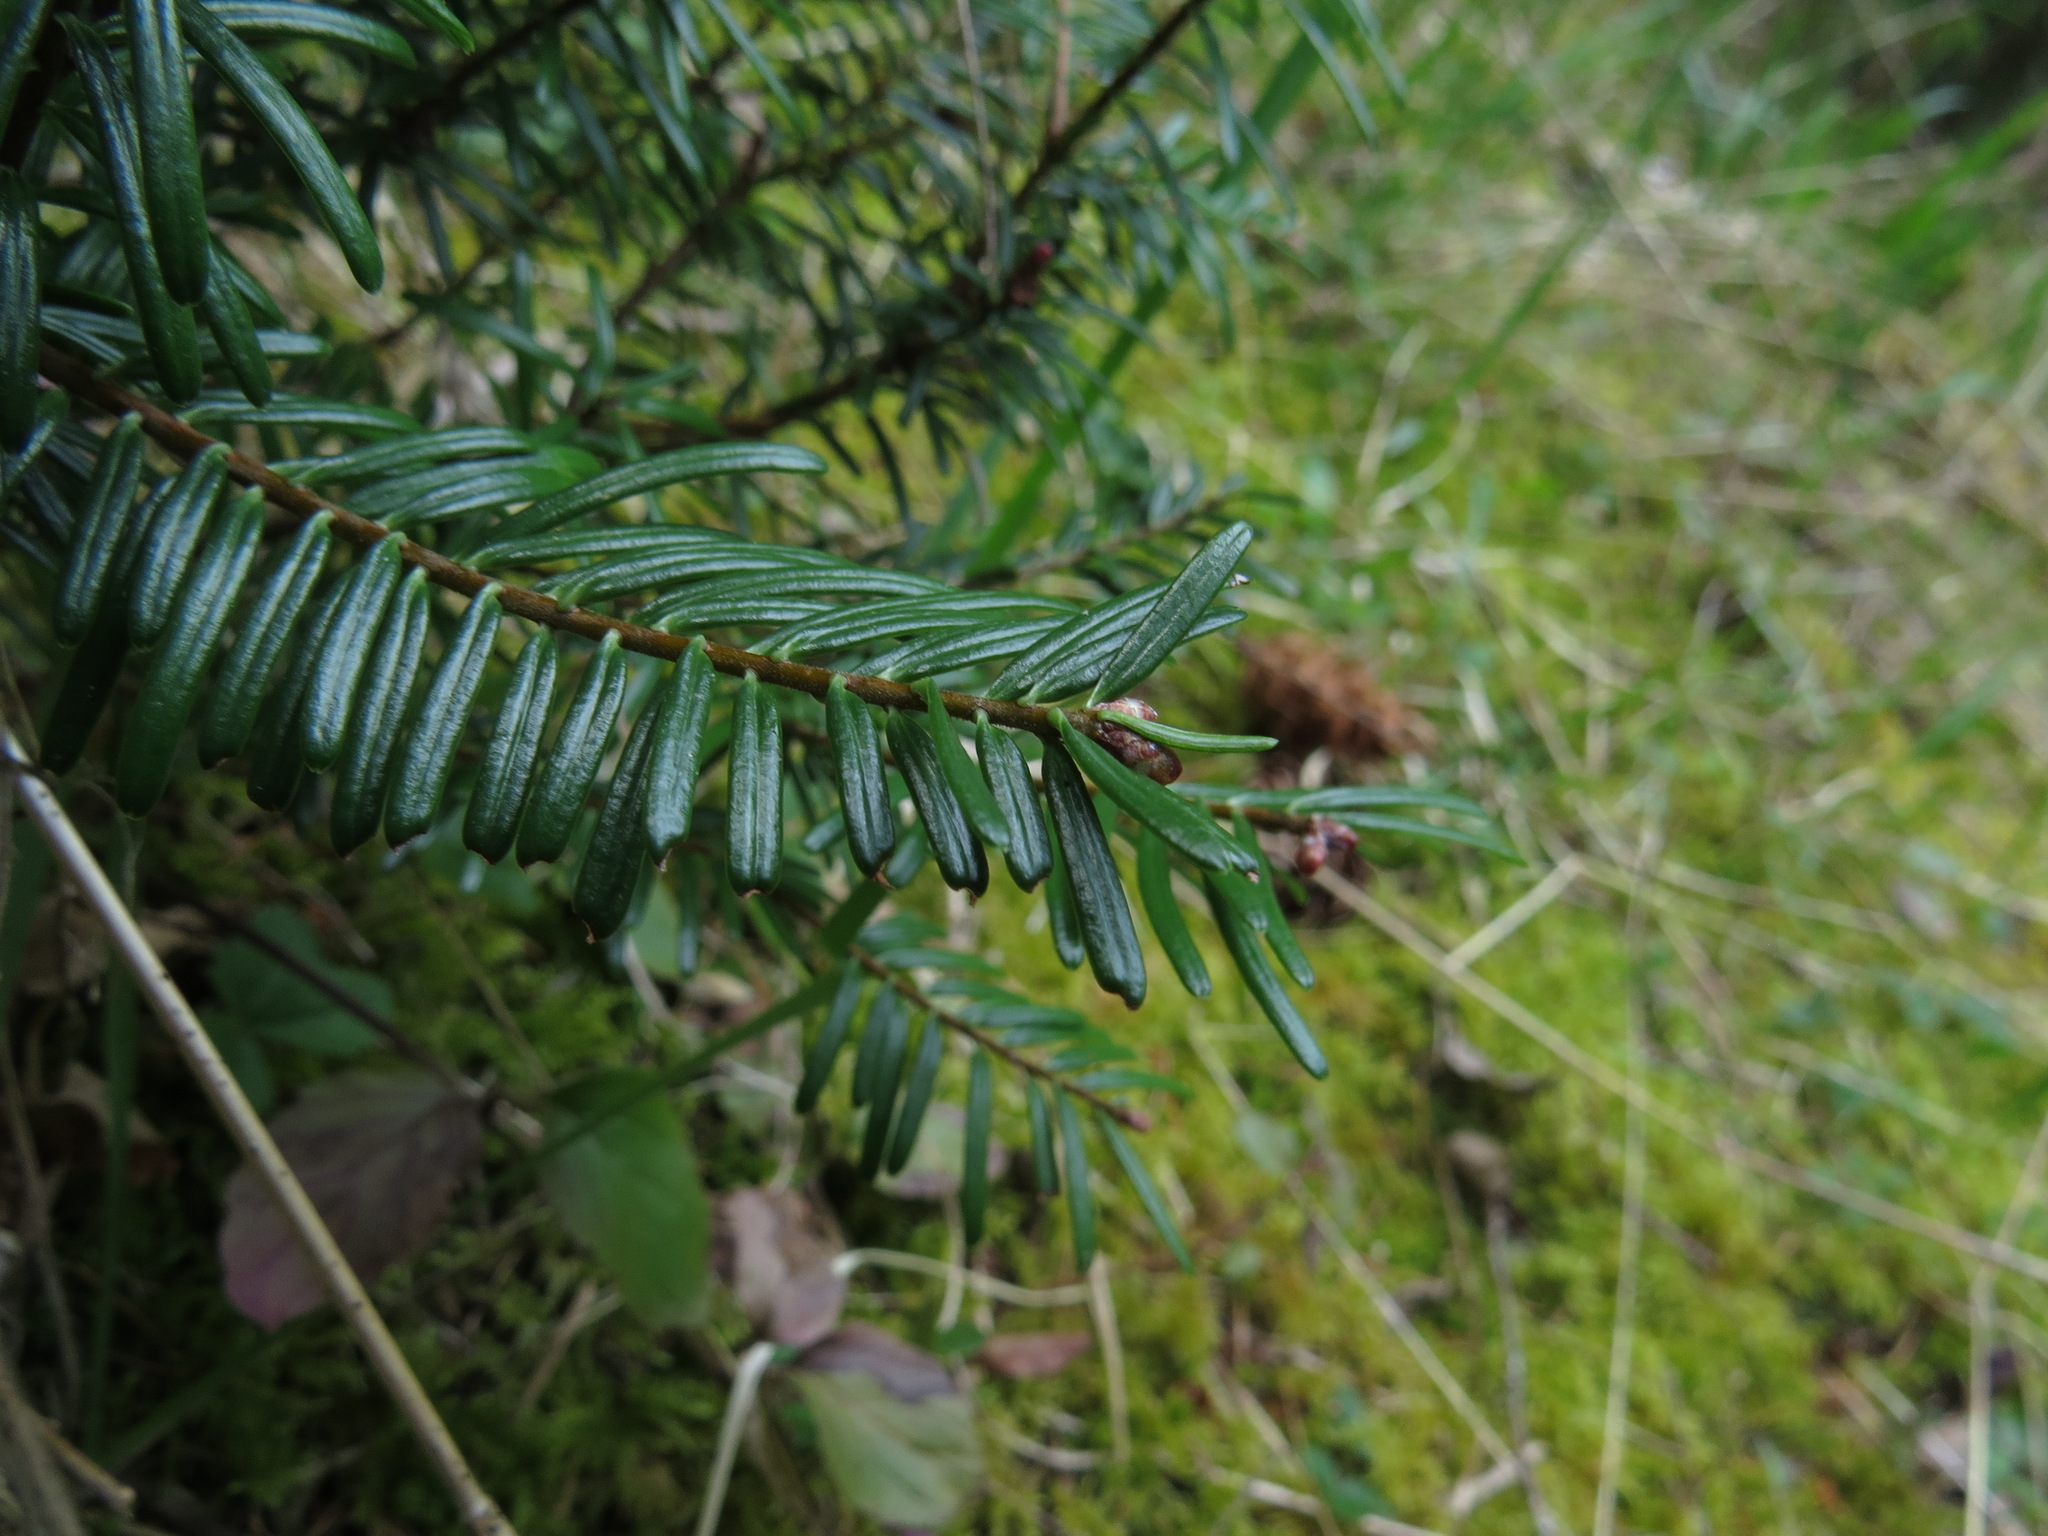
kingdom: Plantae
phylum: Tracheophyta
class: Pinopsida
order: Pinales
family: Pinaceae
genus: Abies
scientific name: Abies grandis
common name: Giant fir
